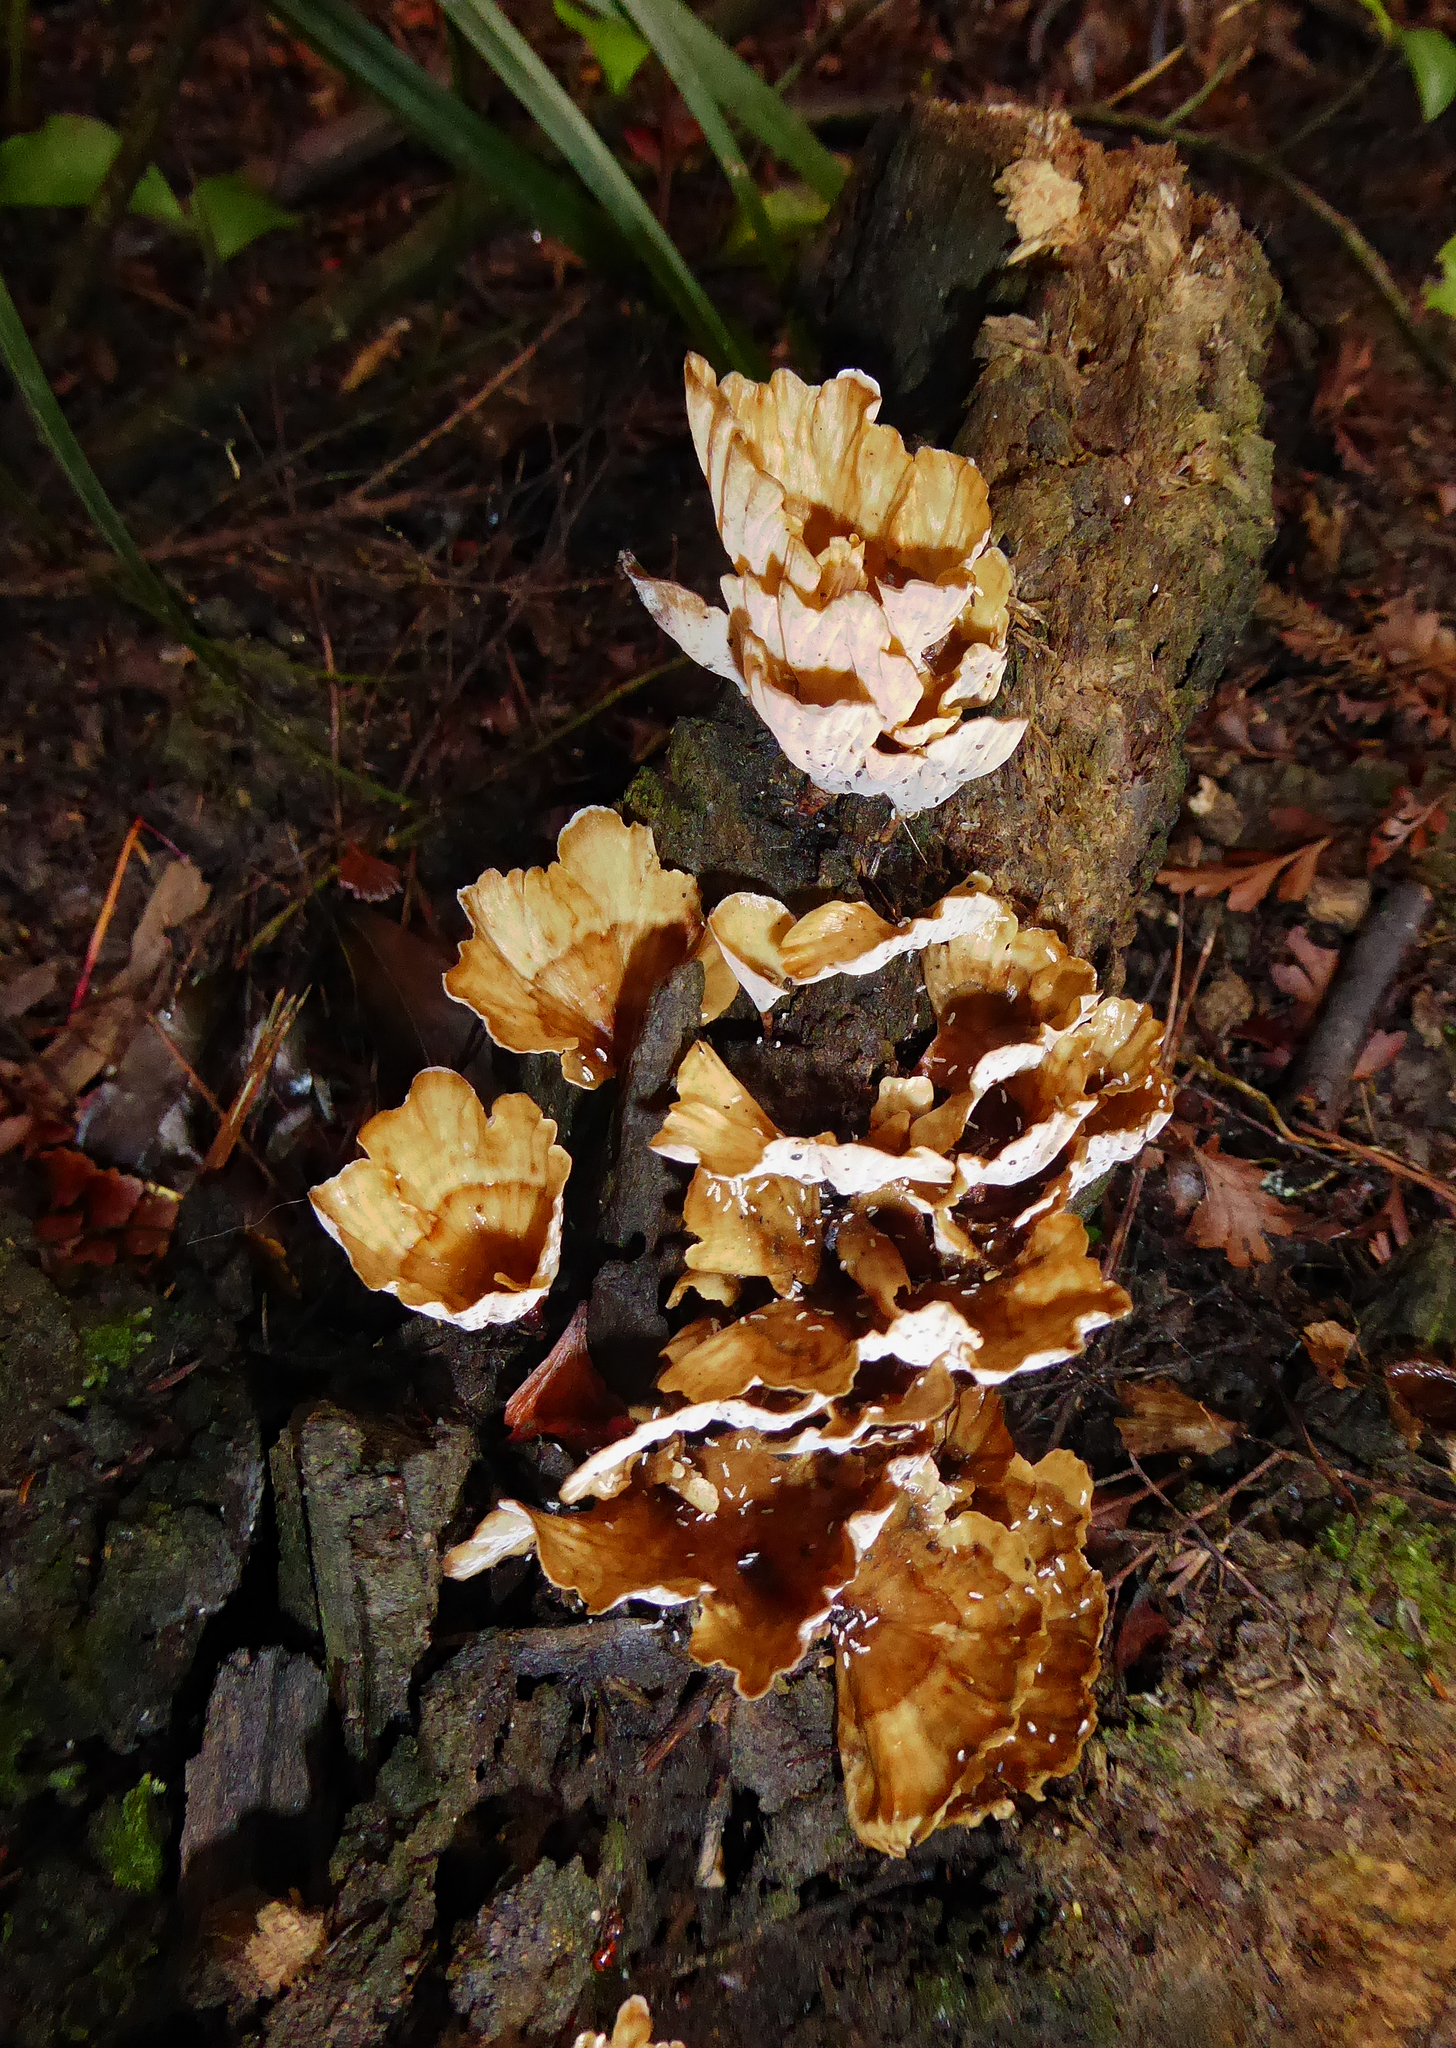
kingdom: Fungi
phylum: Basidiomycota
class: Agaricomycetes
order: Polyporales
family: Podoscyphaceae
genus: Podoscypha
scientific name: Podoscypha petalodes
